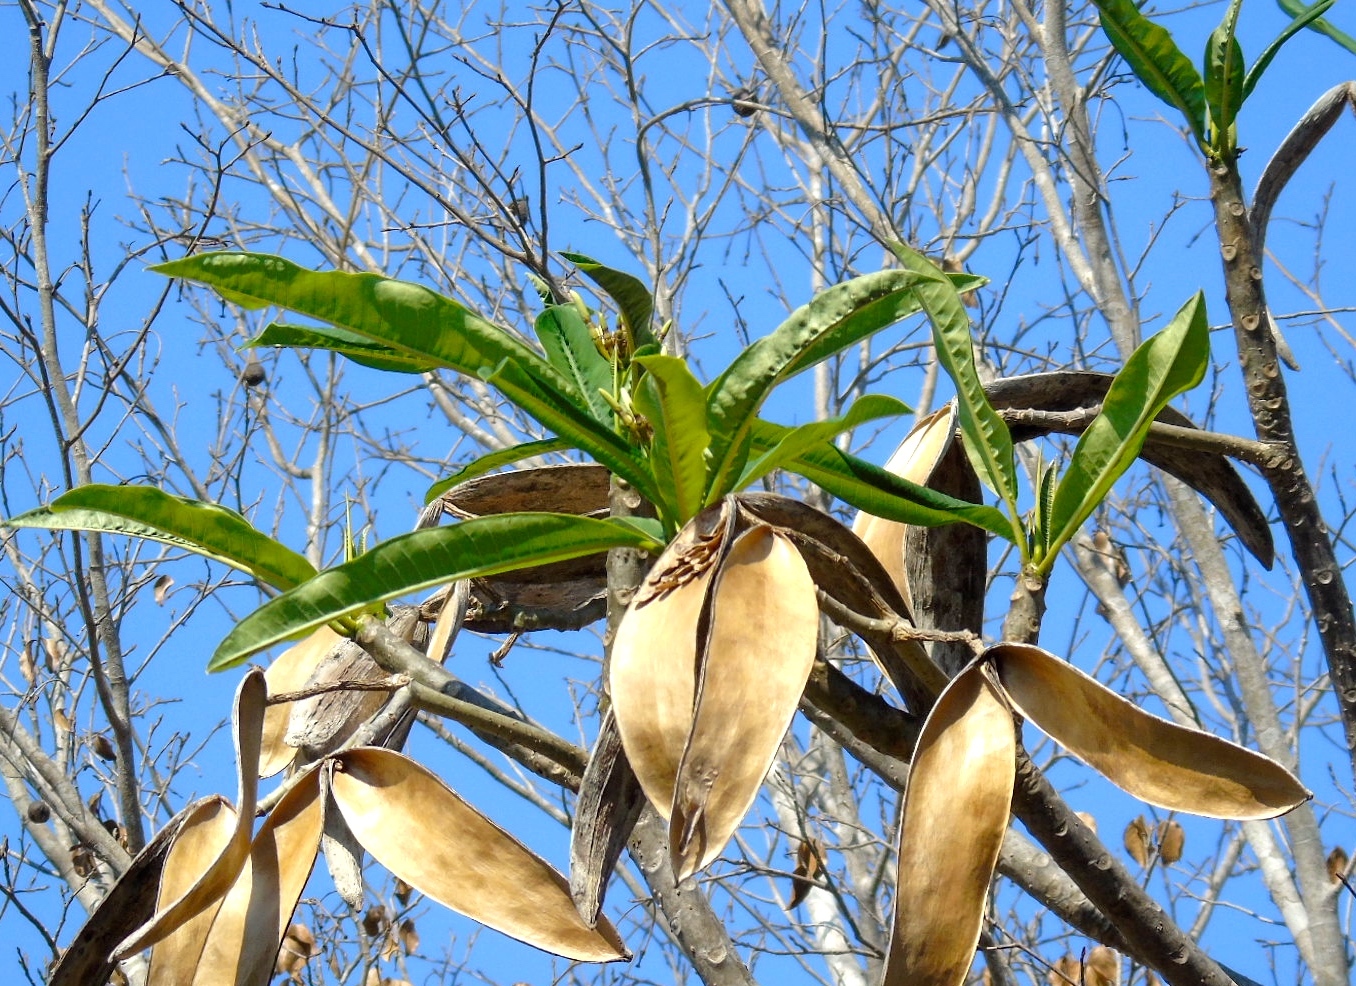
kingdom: Plantae
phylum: Tracheophyta
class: Magnoliopsida
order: Gentianales
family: Apocynaceae
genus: Plumeria
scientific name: Plumeria rubra
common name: Pagoda-tree
